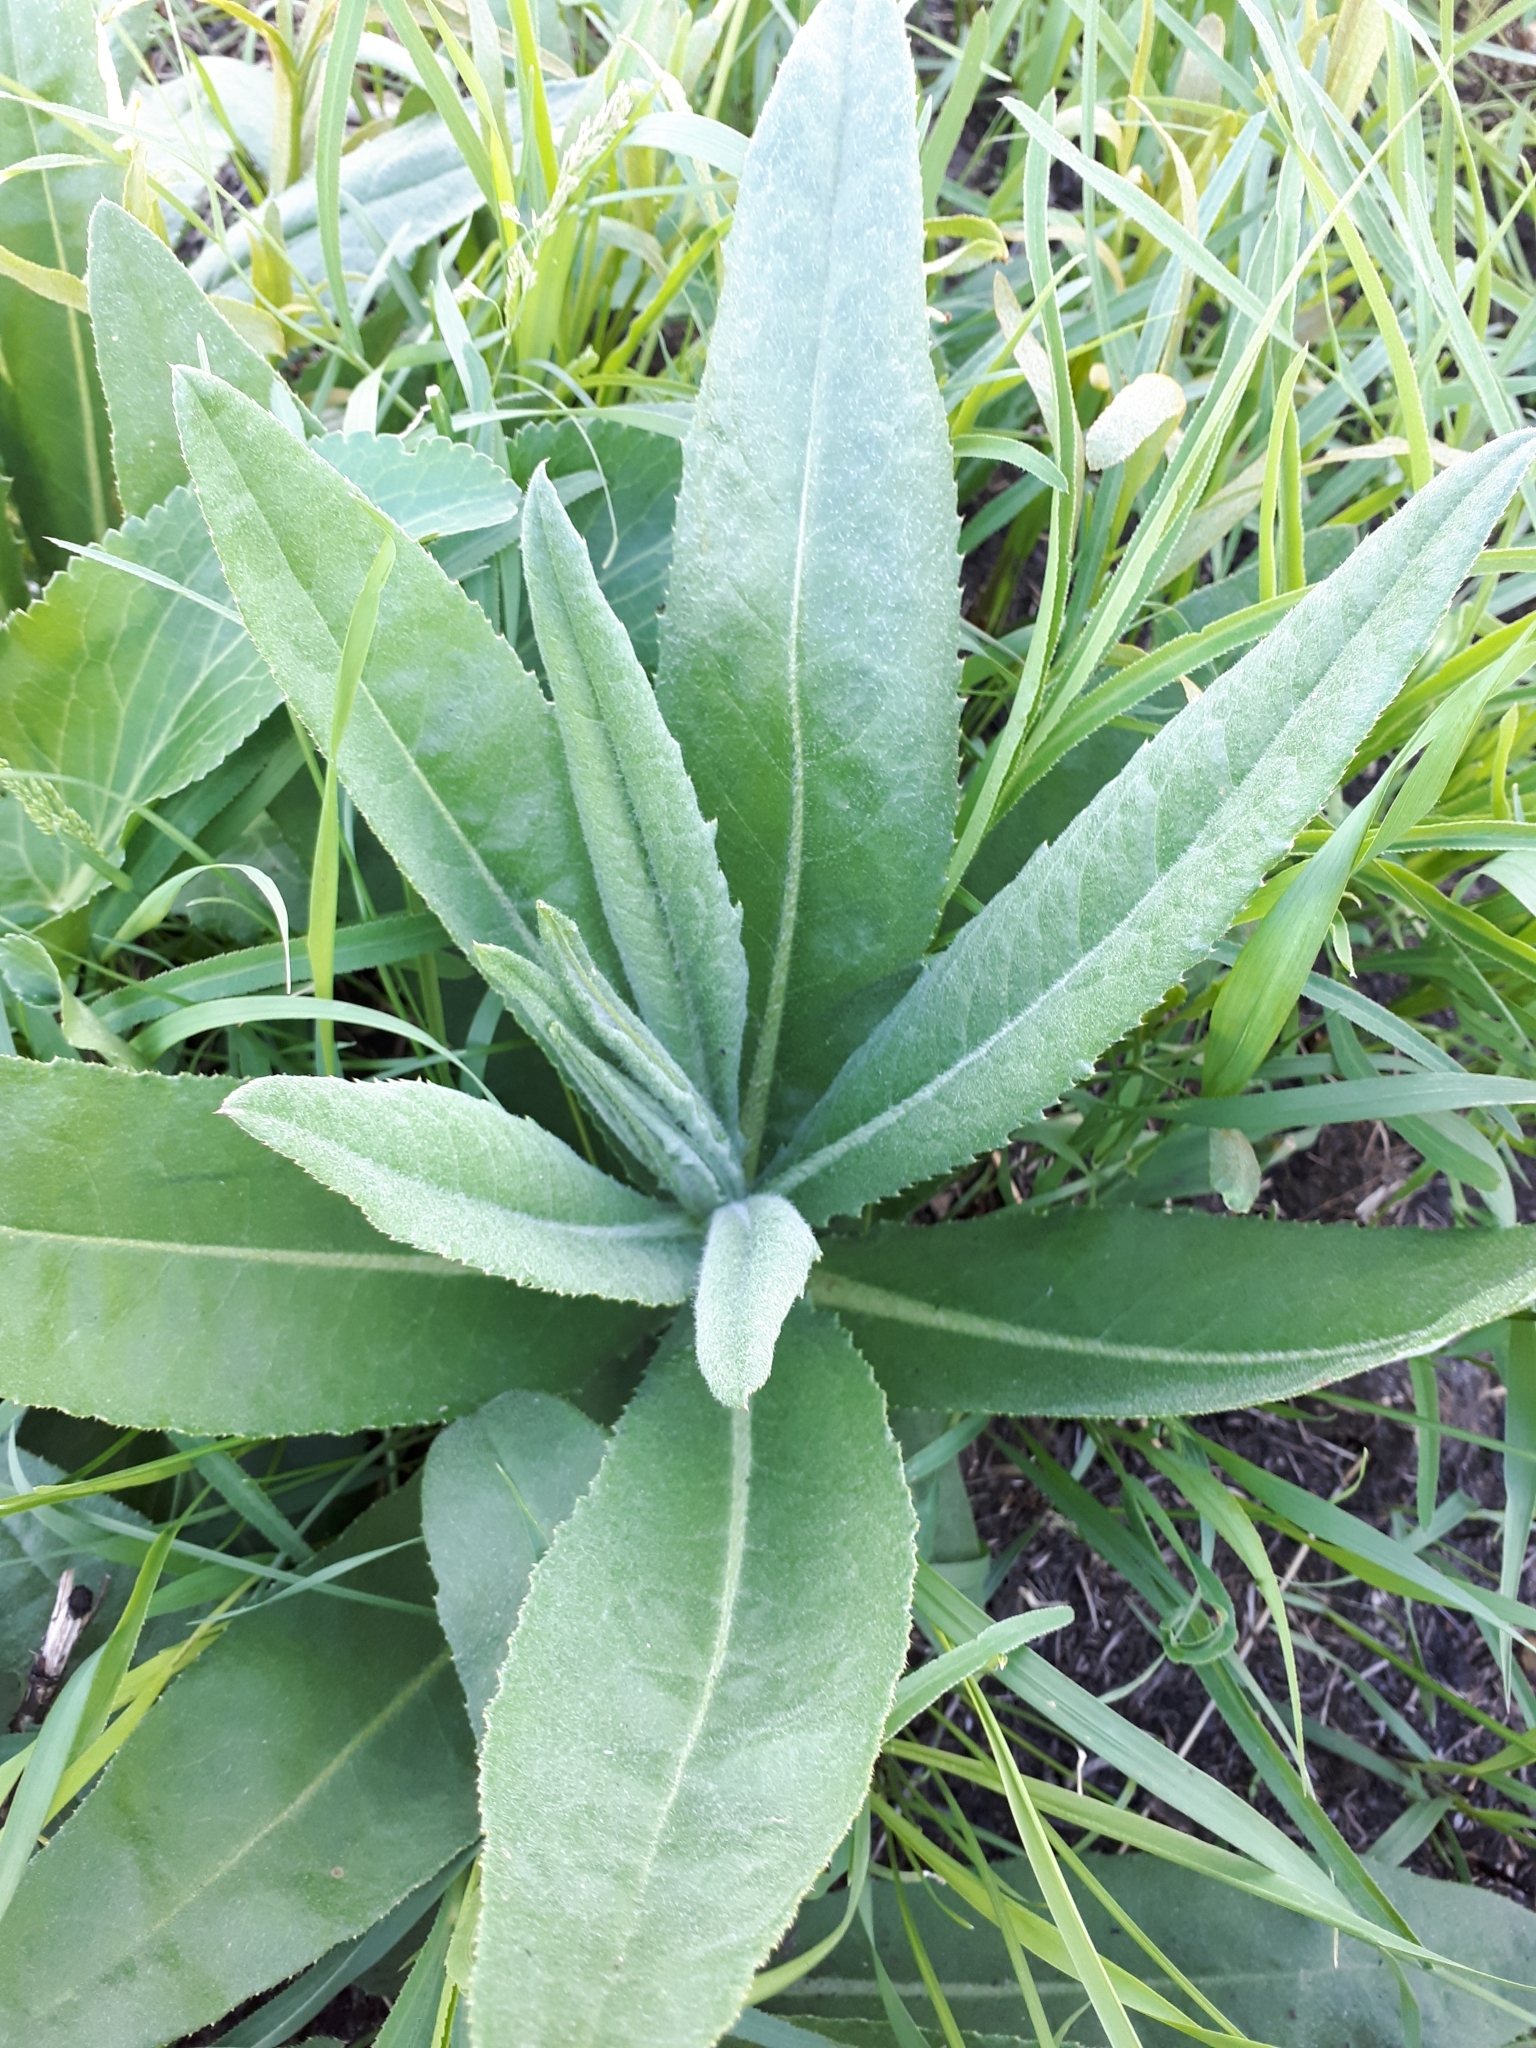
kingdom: Plantae
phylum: Tracheophyta
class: Magnoliopsida
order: Asterales
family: Asteraceae
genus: Cirsium
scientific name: Cirsium arvense
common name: Creeping thistle
